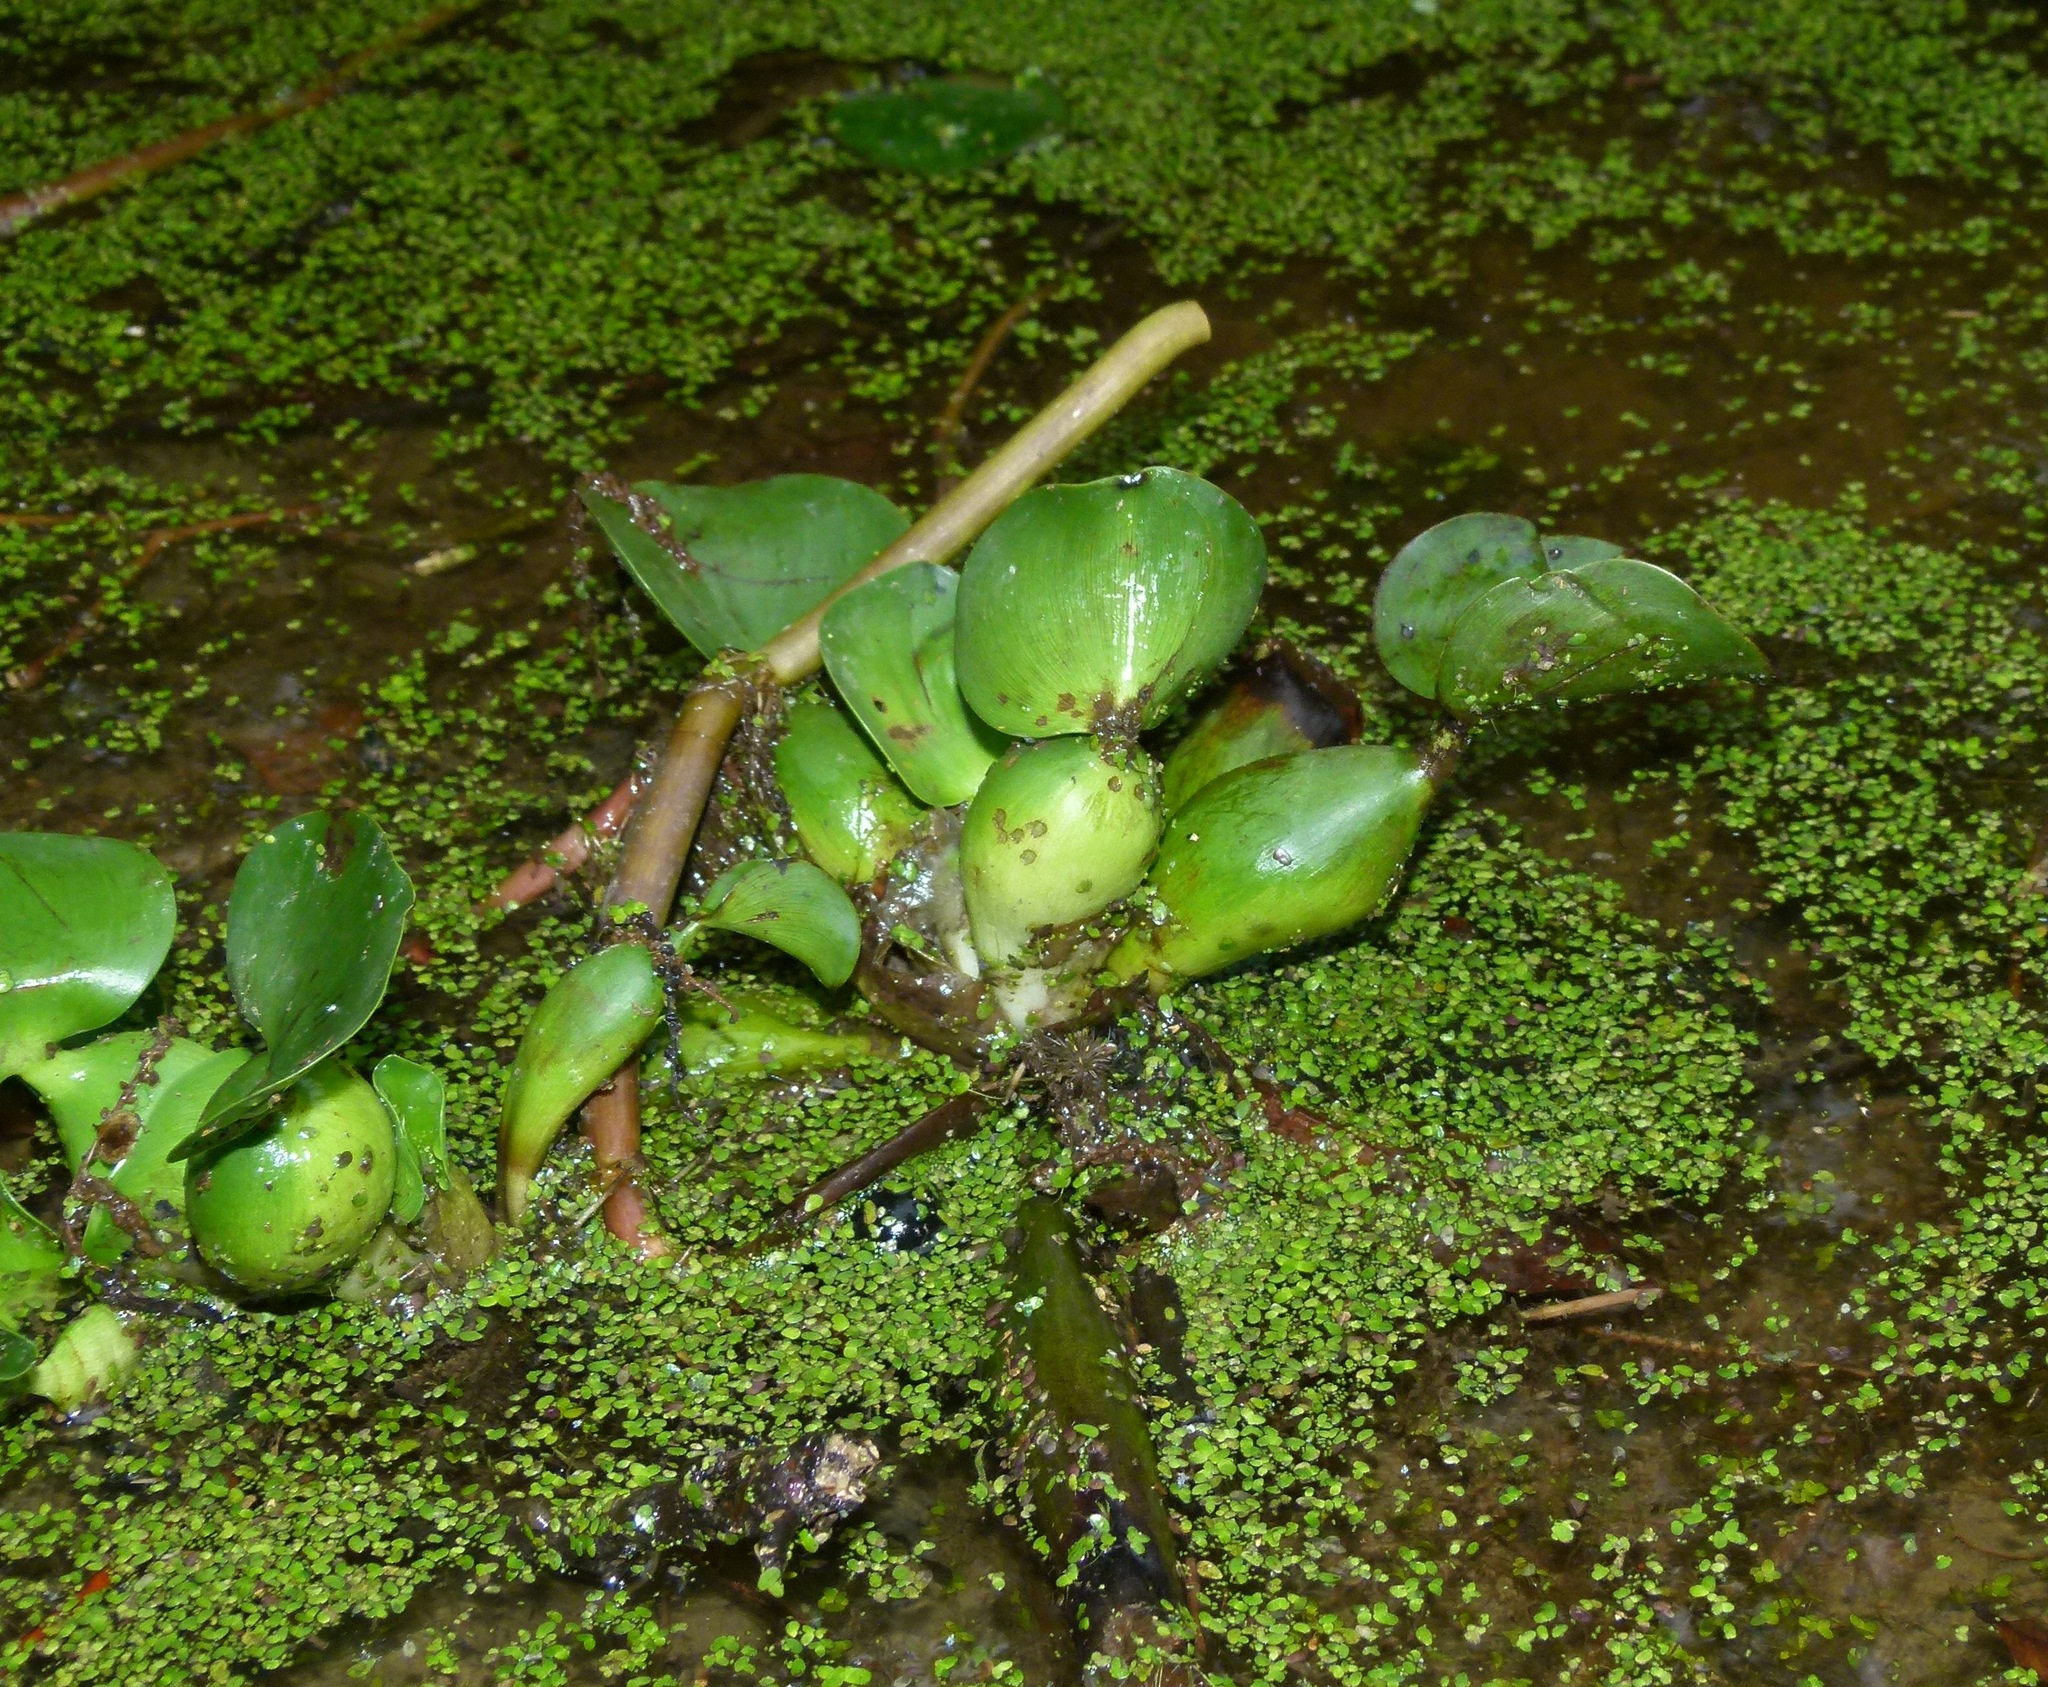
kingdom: Plantae
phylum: Tracheophyta
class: Liliopsida
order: Commelinales
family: Pontederiaceae
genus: Pontederia
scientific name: Pontederia crassipes
